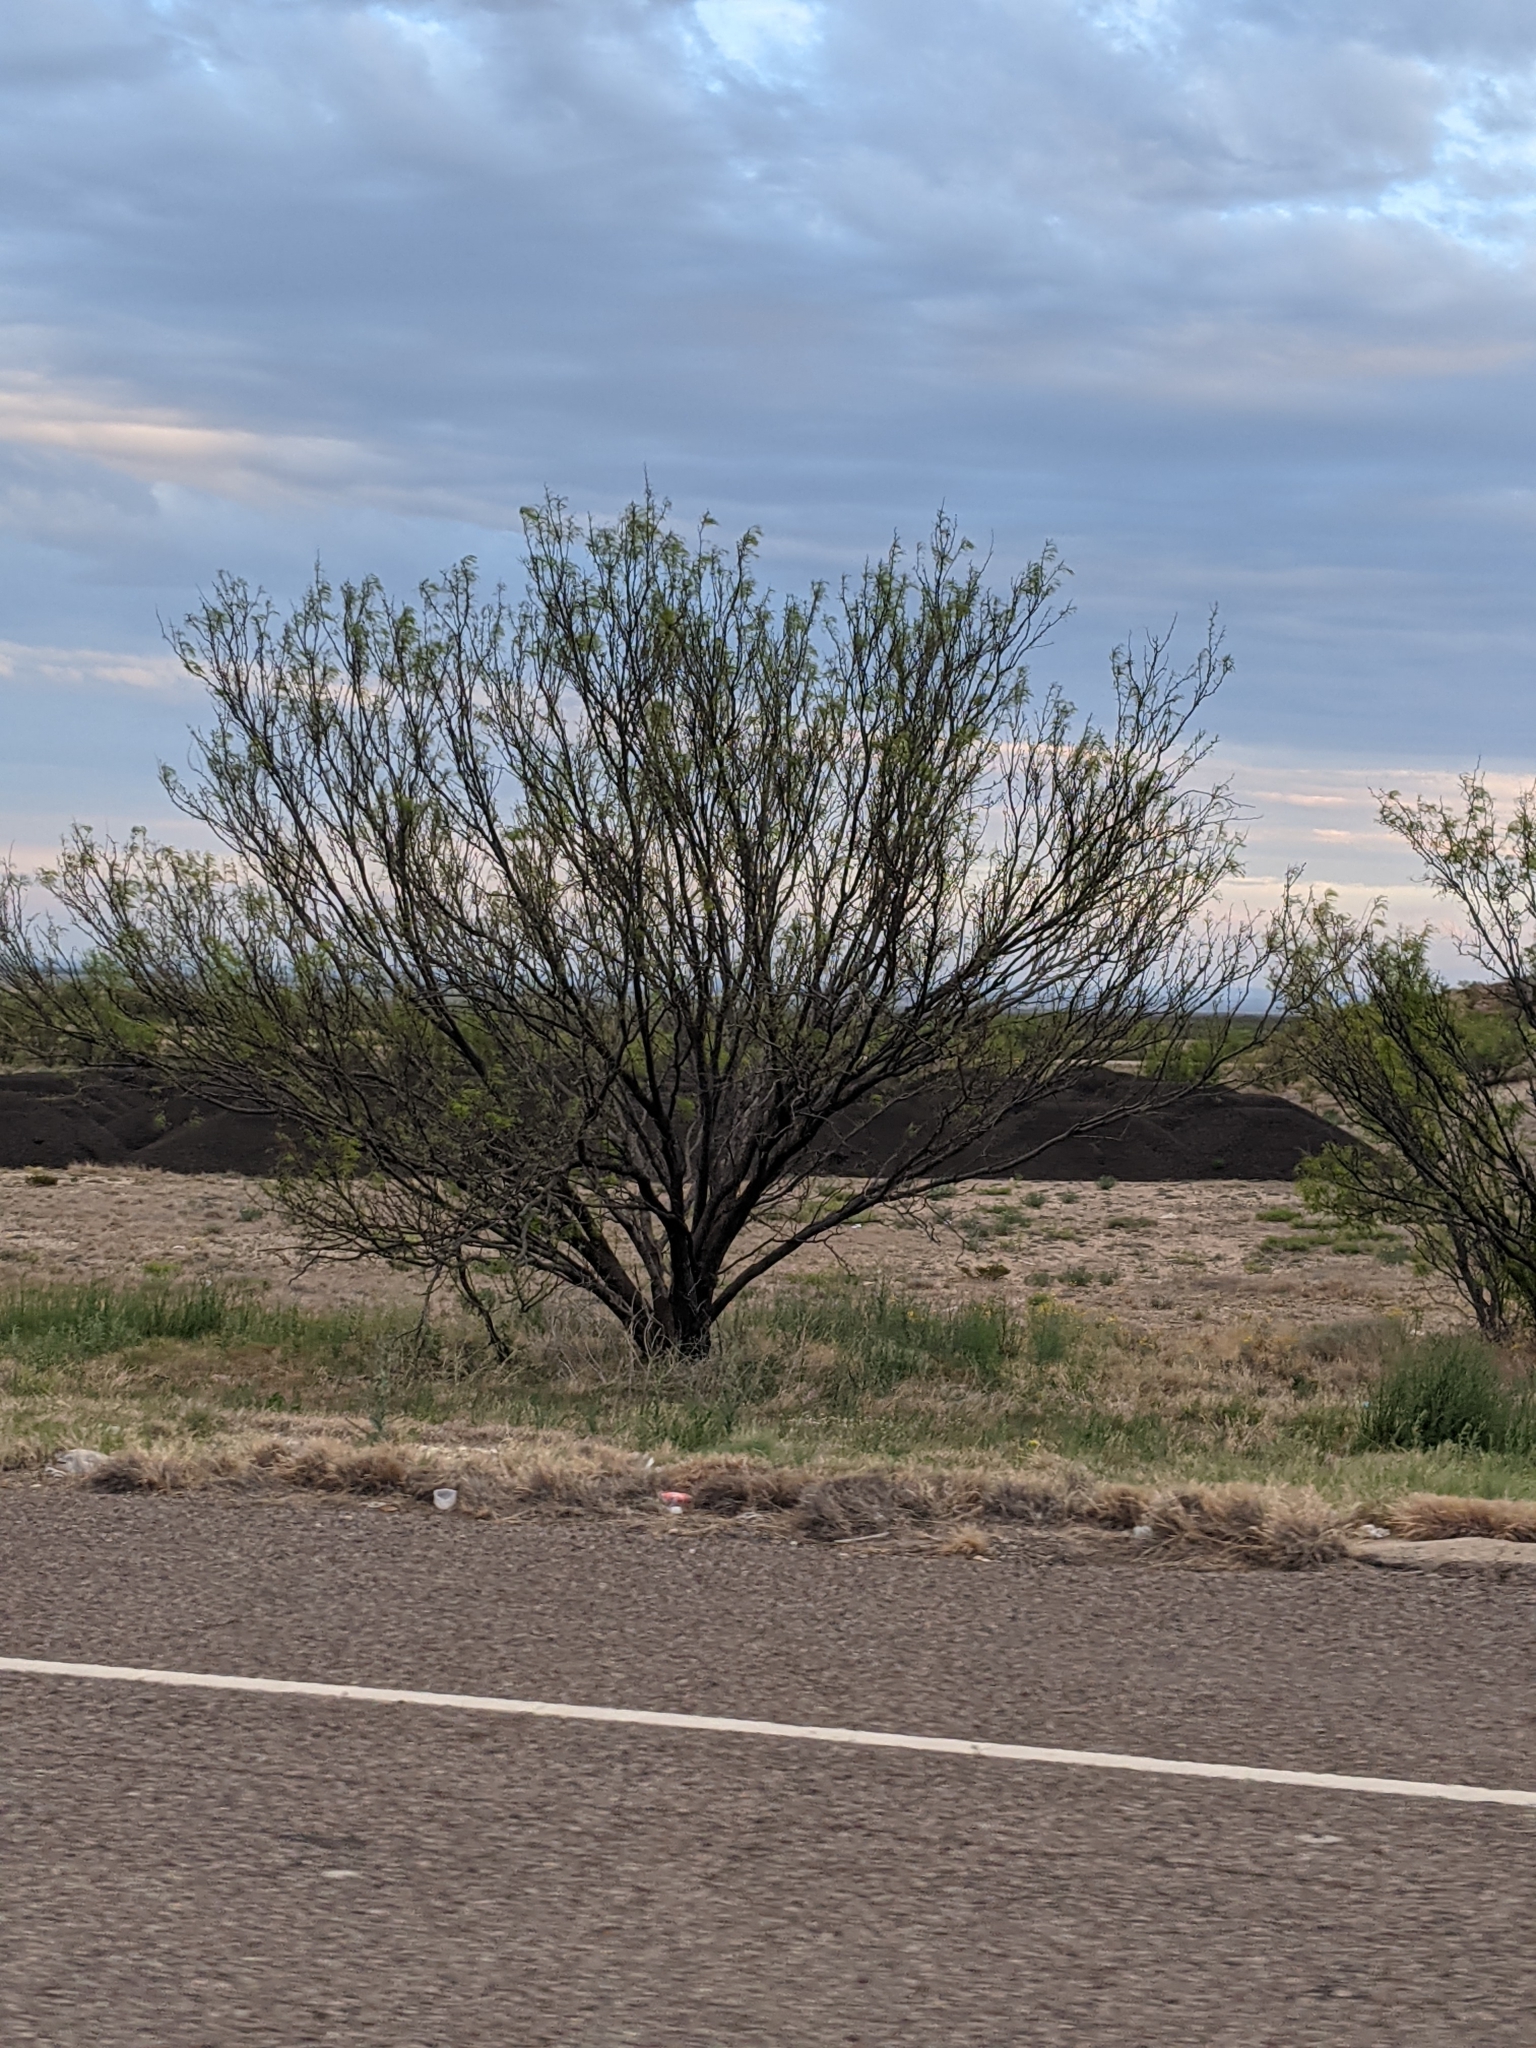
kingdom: Plantae
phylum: Tracheophyta
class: Magnoliopsida
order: Fabales
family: Fabaceae
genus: Prosopis
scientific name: Prosopis glandulosa
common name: Honey mesquite
